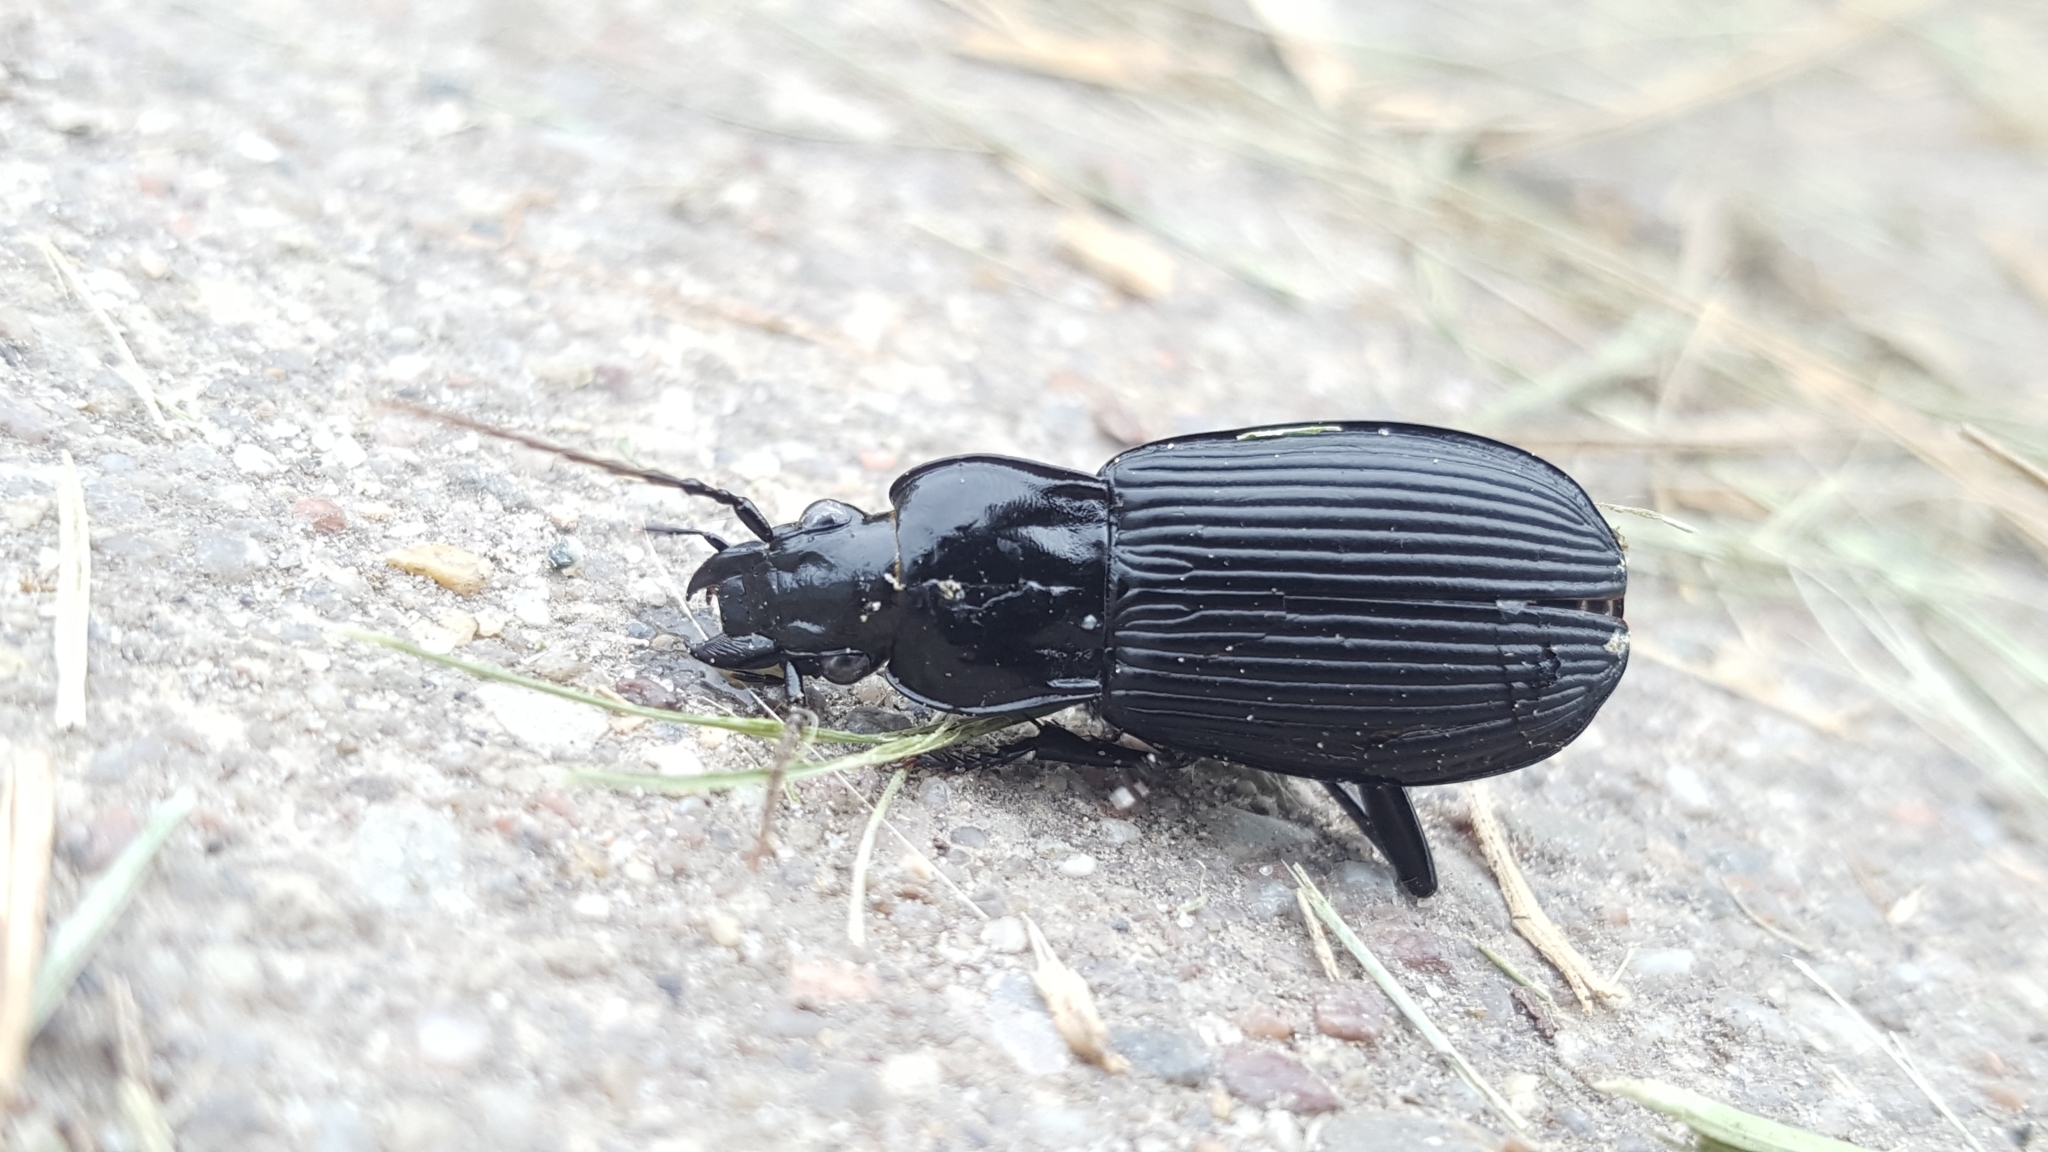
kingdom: Animalia
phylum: Arthropoda
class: Insecta
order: Coleoptera
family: Carabidae
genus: Pterostichus
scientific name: Pterostichus niger
